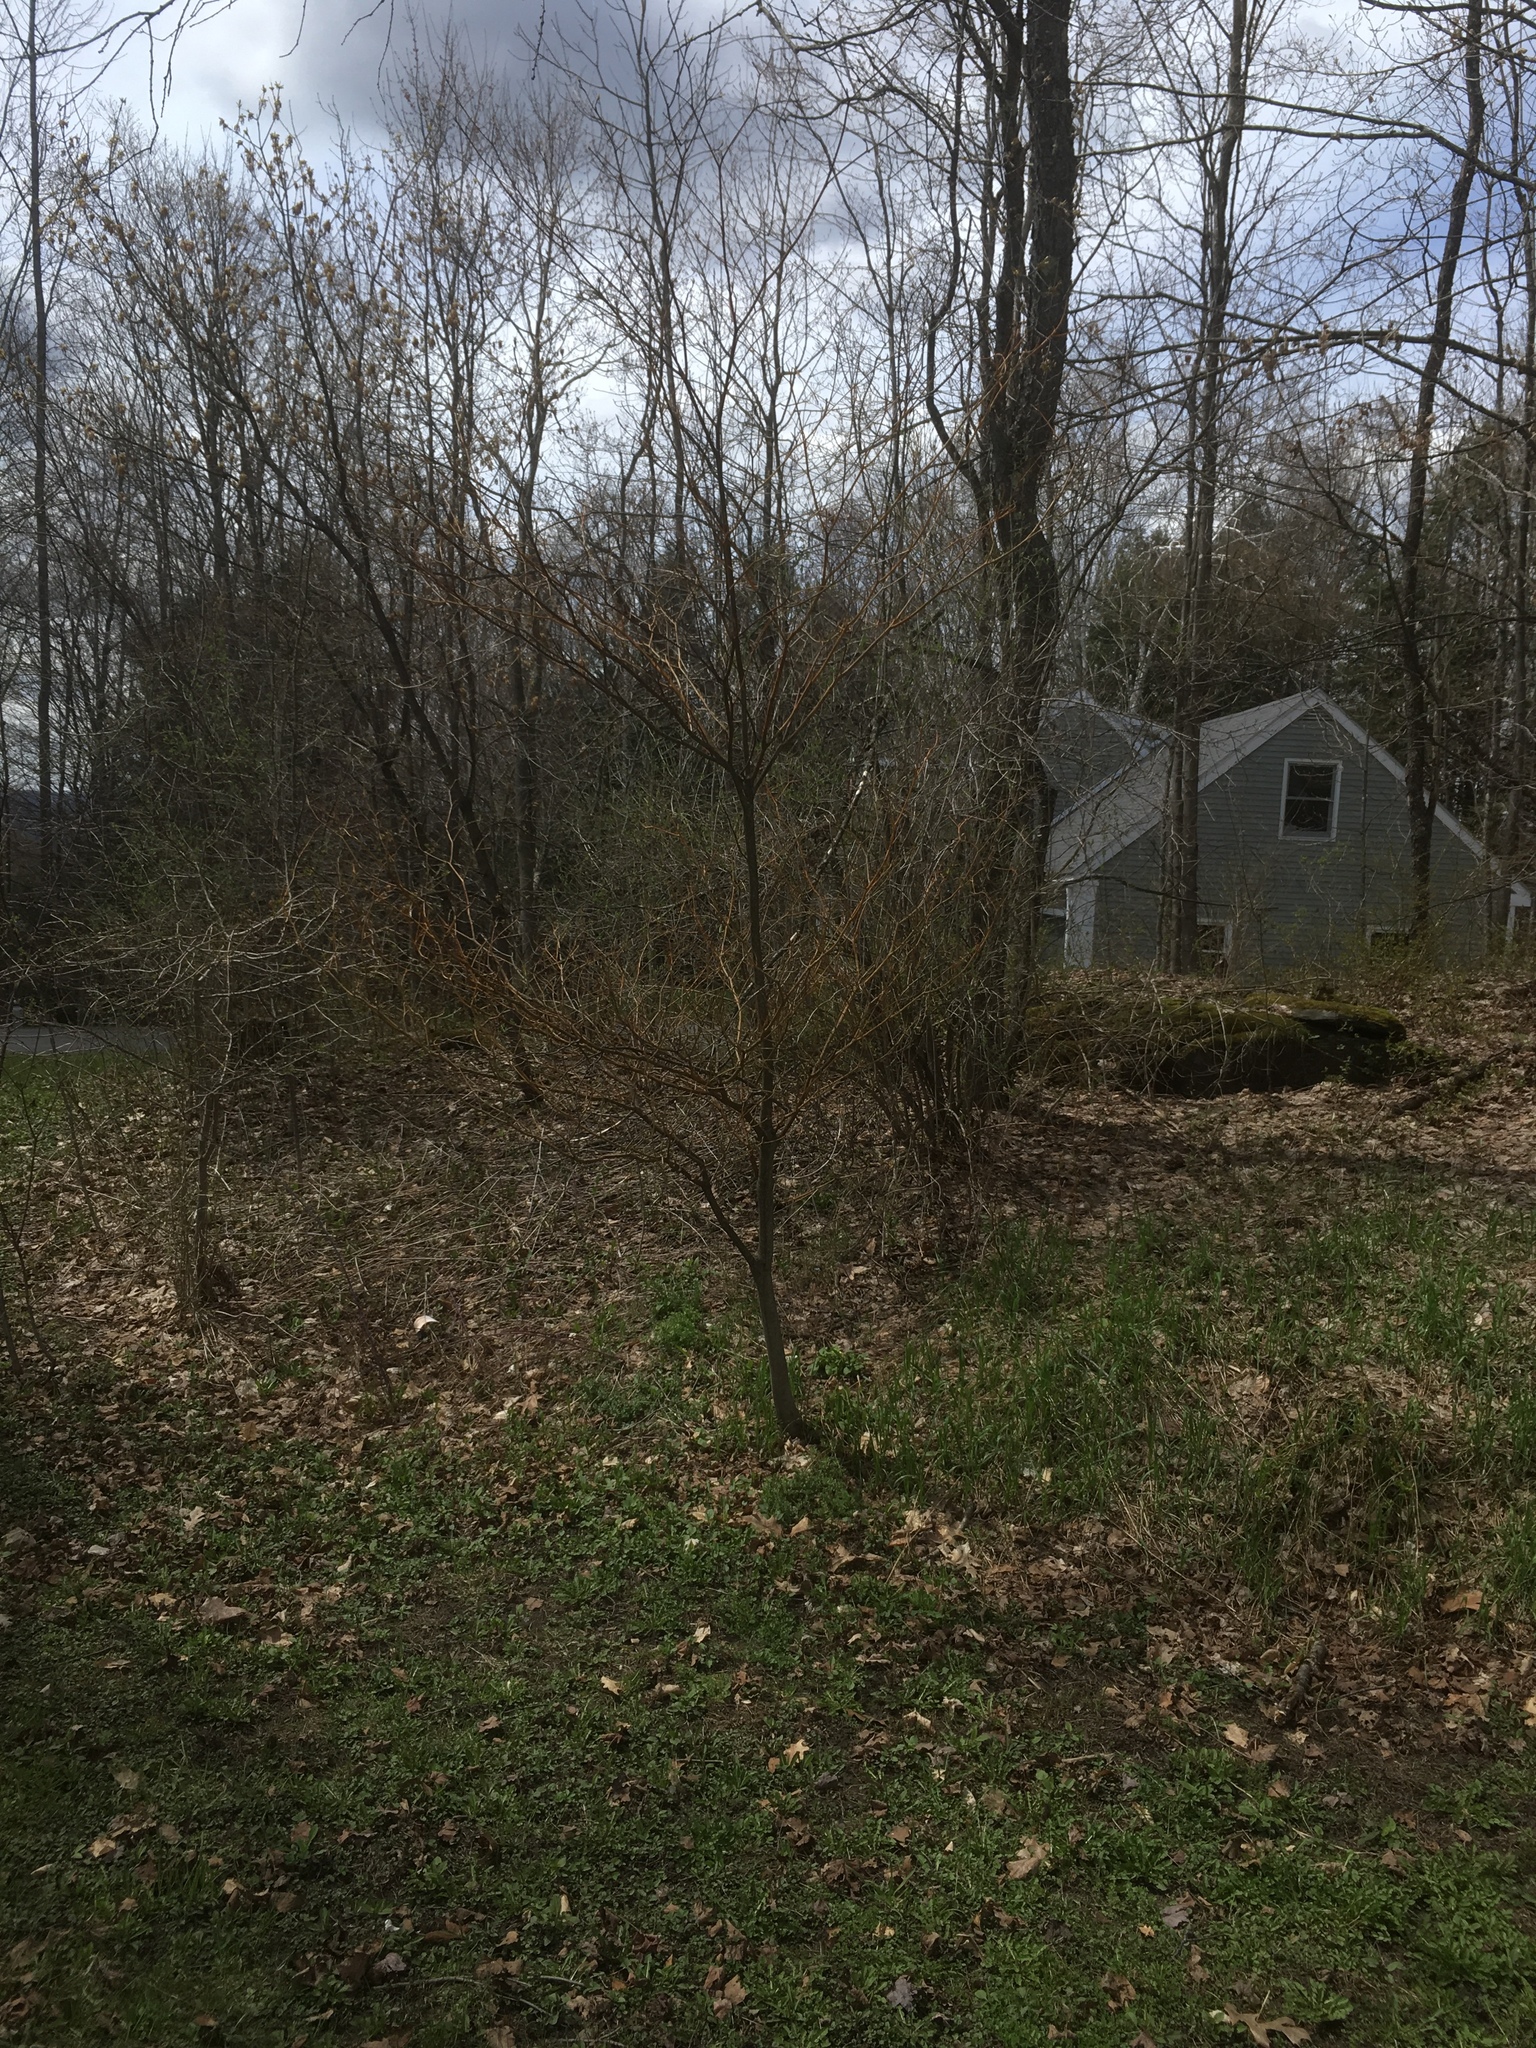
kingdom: Plantae
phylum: Tracheophyta
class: Magnoliopsida
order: Cornales
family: Cornaceae
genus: Cornus
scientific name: Cornus alternifolia
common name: Pagoda dogwood
